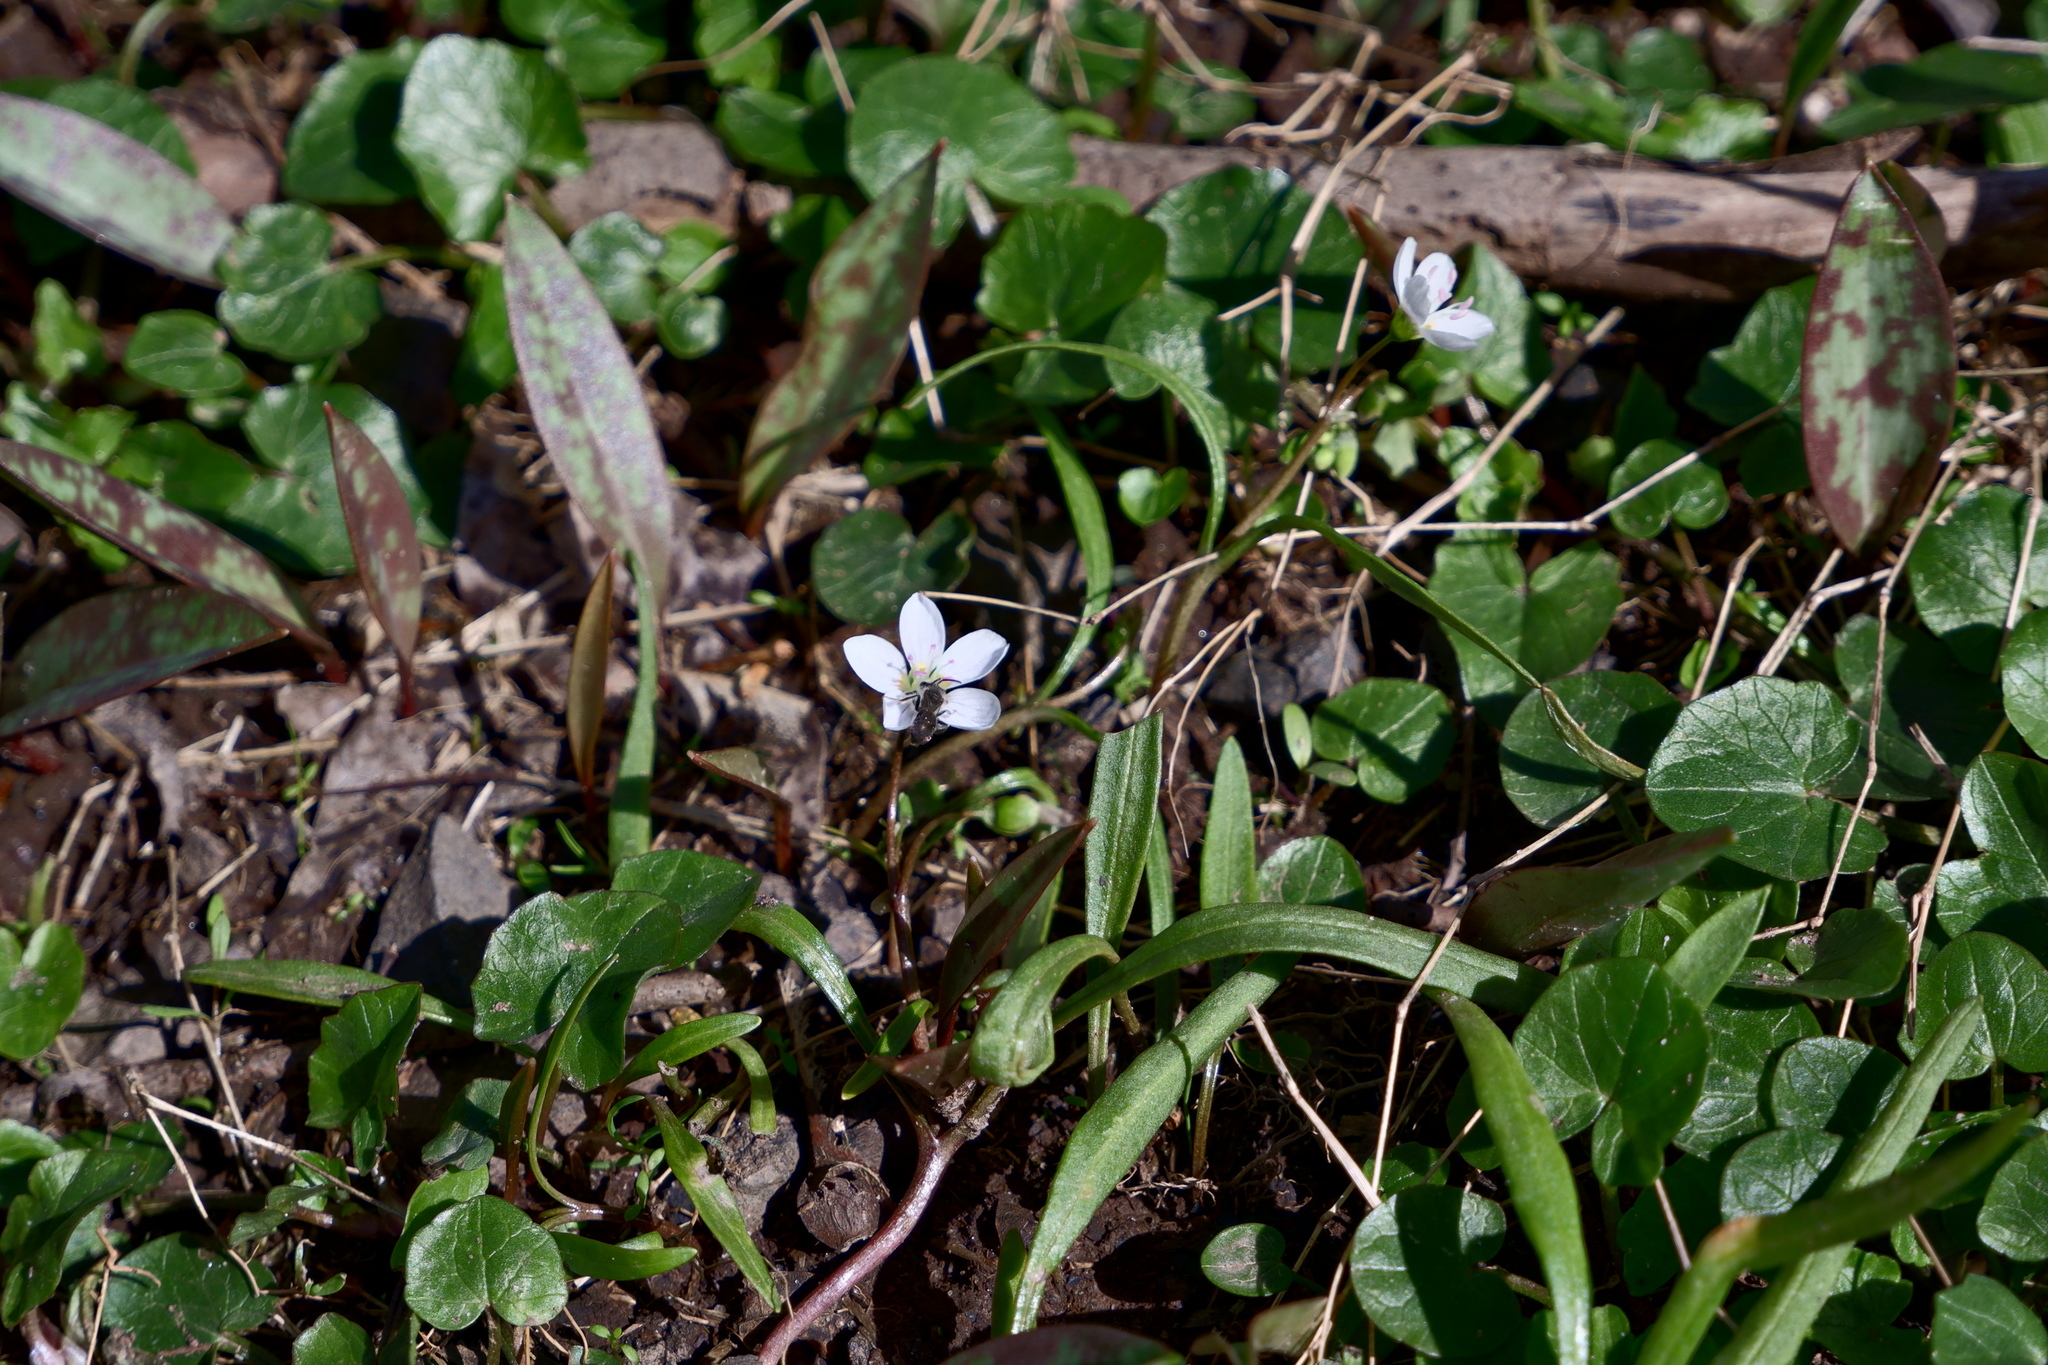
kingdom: Animalia
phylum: Arthropoda
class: Insecta
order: Hymenoptera
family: Andrenidae
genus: Andrena
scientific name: Andrena erigeniae
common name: Spring beauty miner
